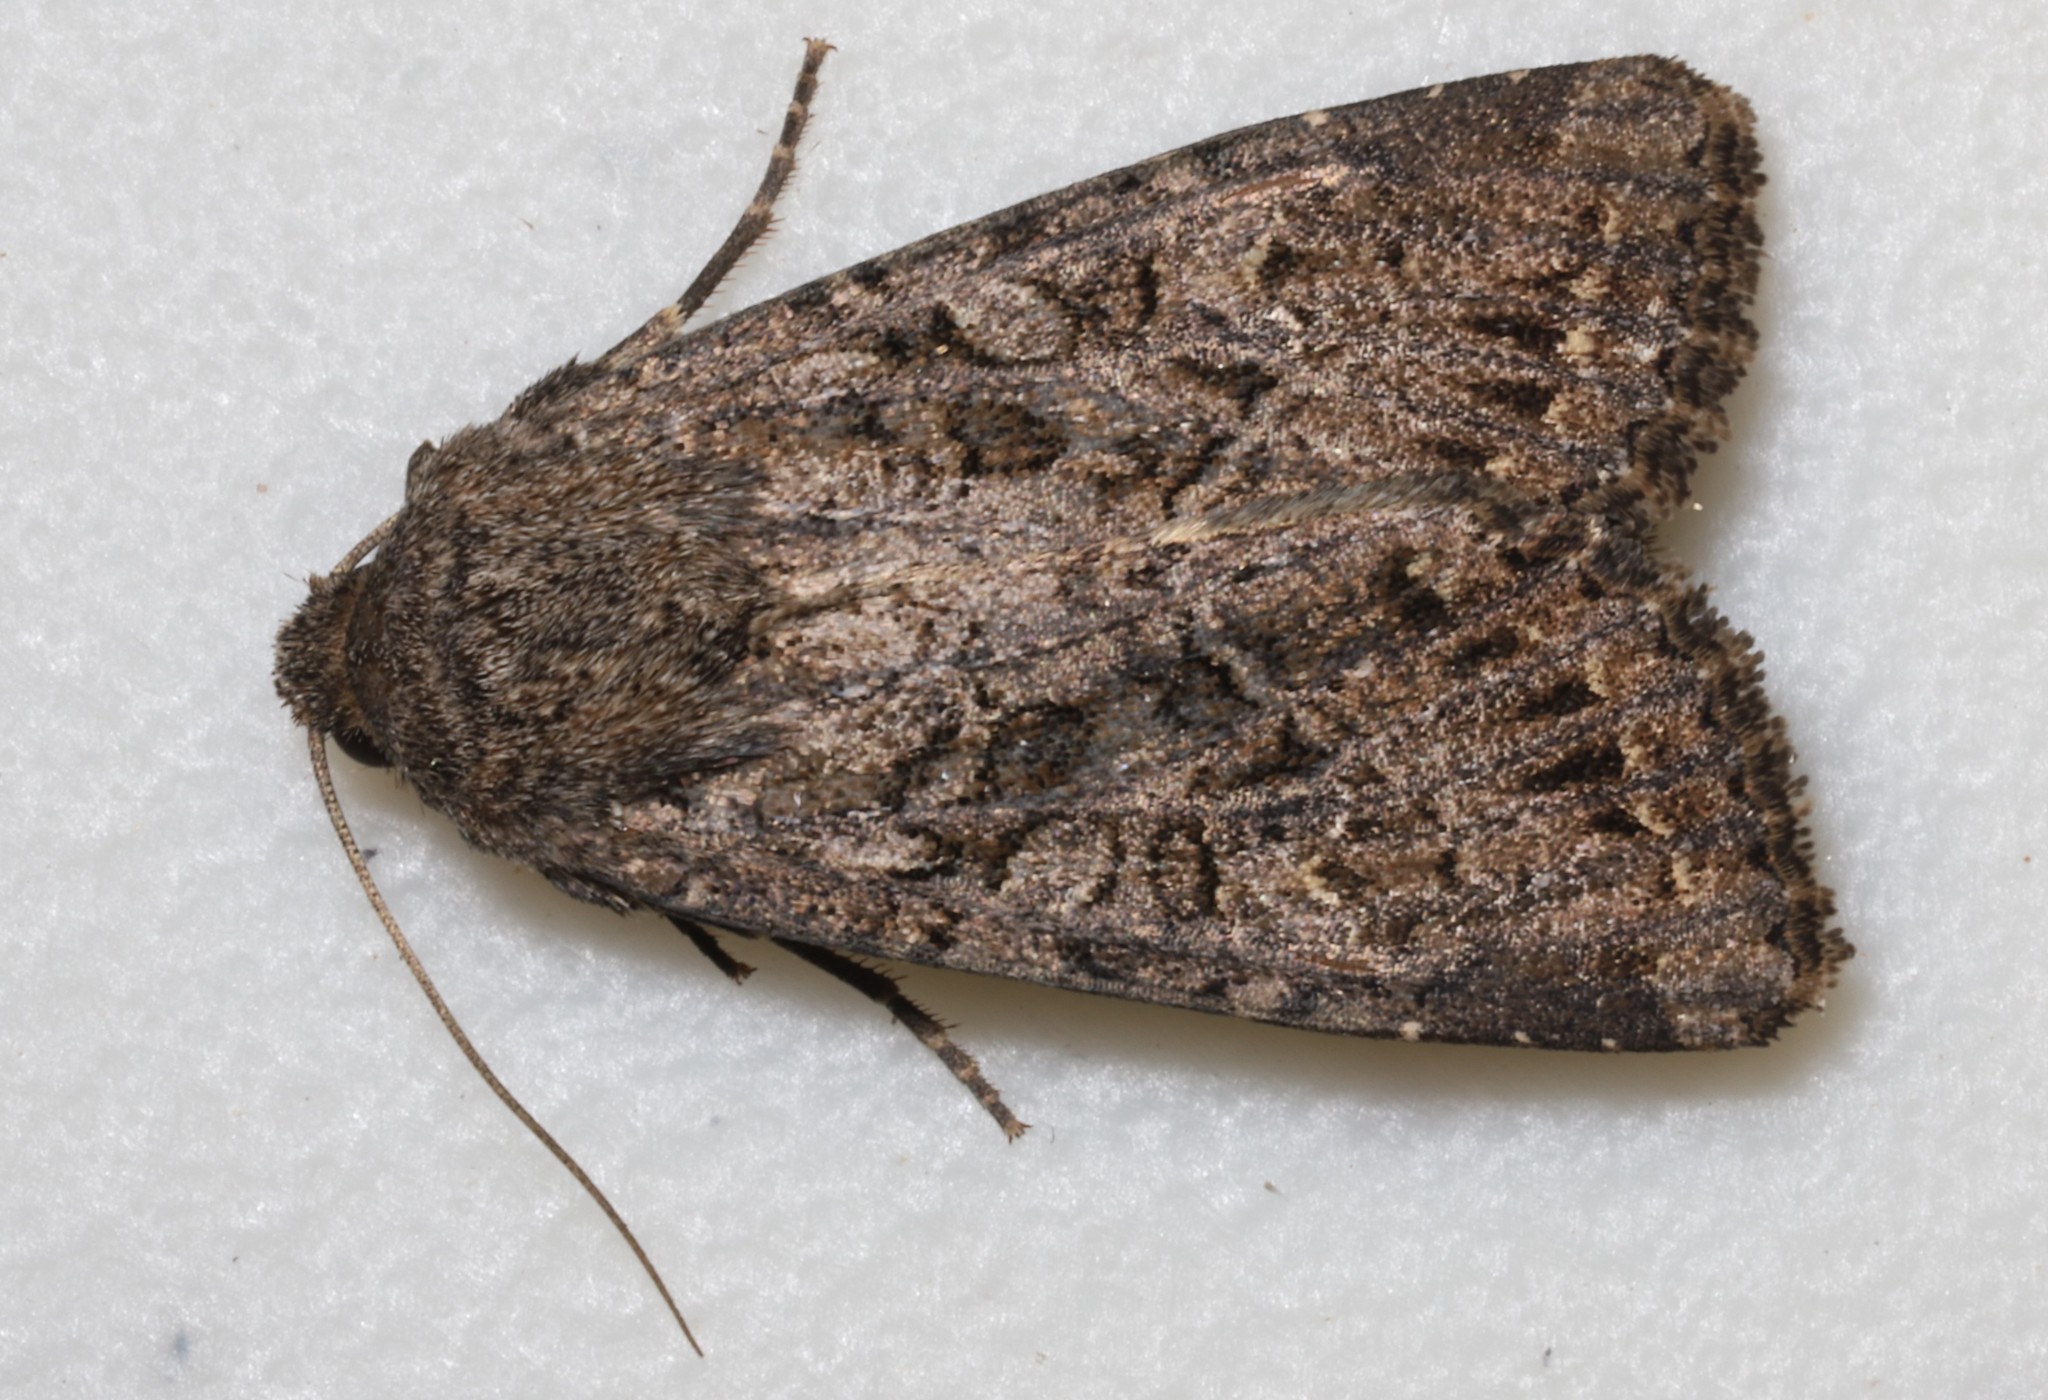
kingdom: Animalia
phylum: Arthropoda
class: Insecta
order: Lepidoptera
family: Noctuidae
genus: Apamea
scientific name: Apamea devastator
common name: Glassy cutworm
